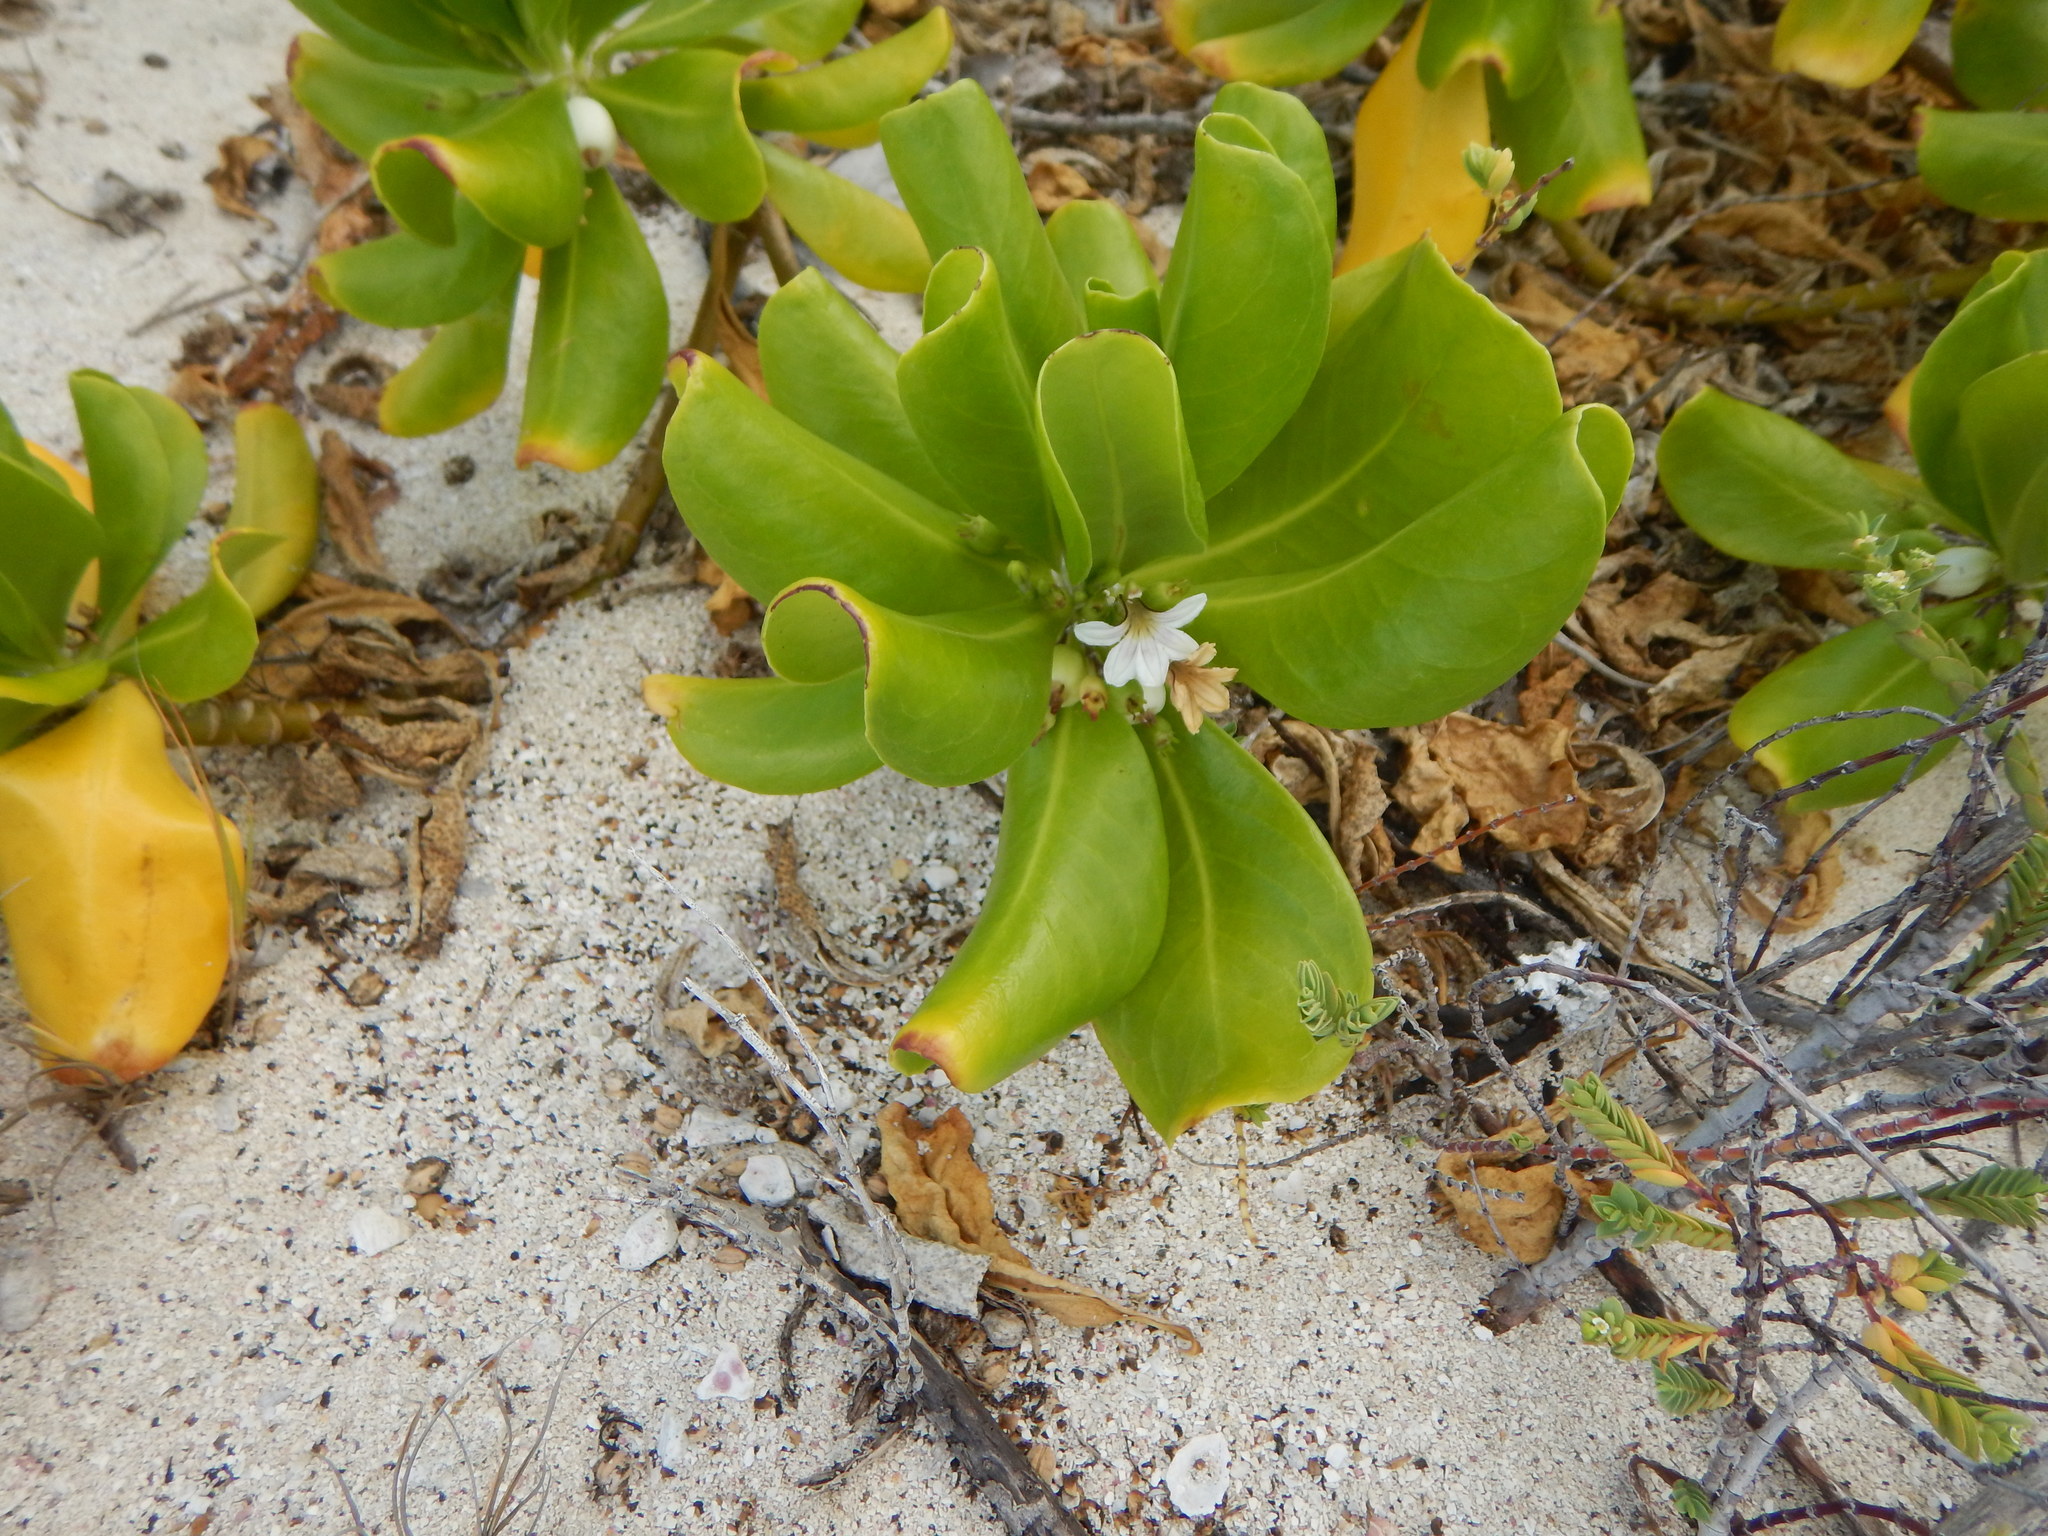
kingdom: Plantae
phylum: Tracheophyta
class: Magnoliopsida
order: Asterales
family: Goodeniaceae
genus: Scaevola
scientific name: Scaevola taccada
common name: Sea lettucetree
